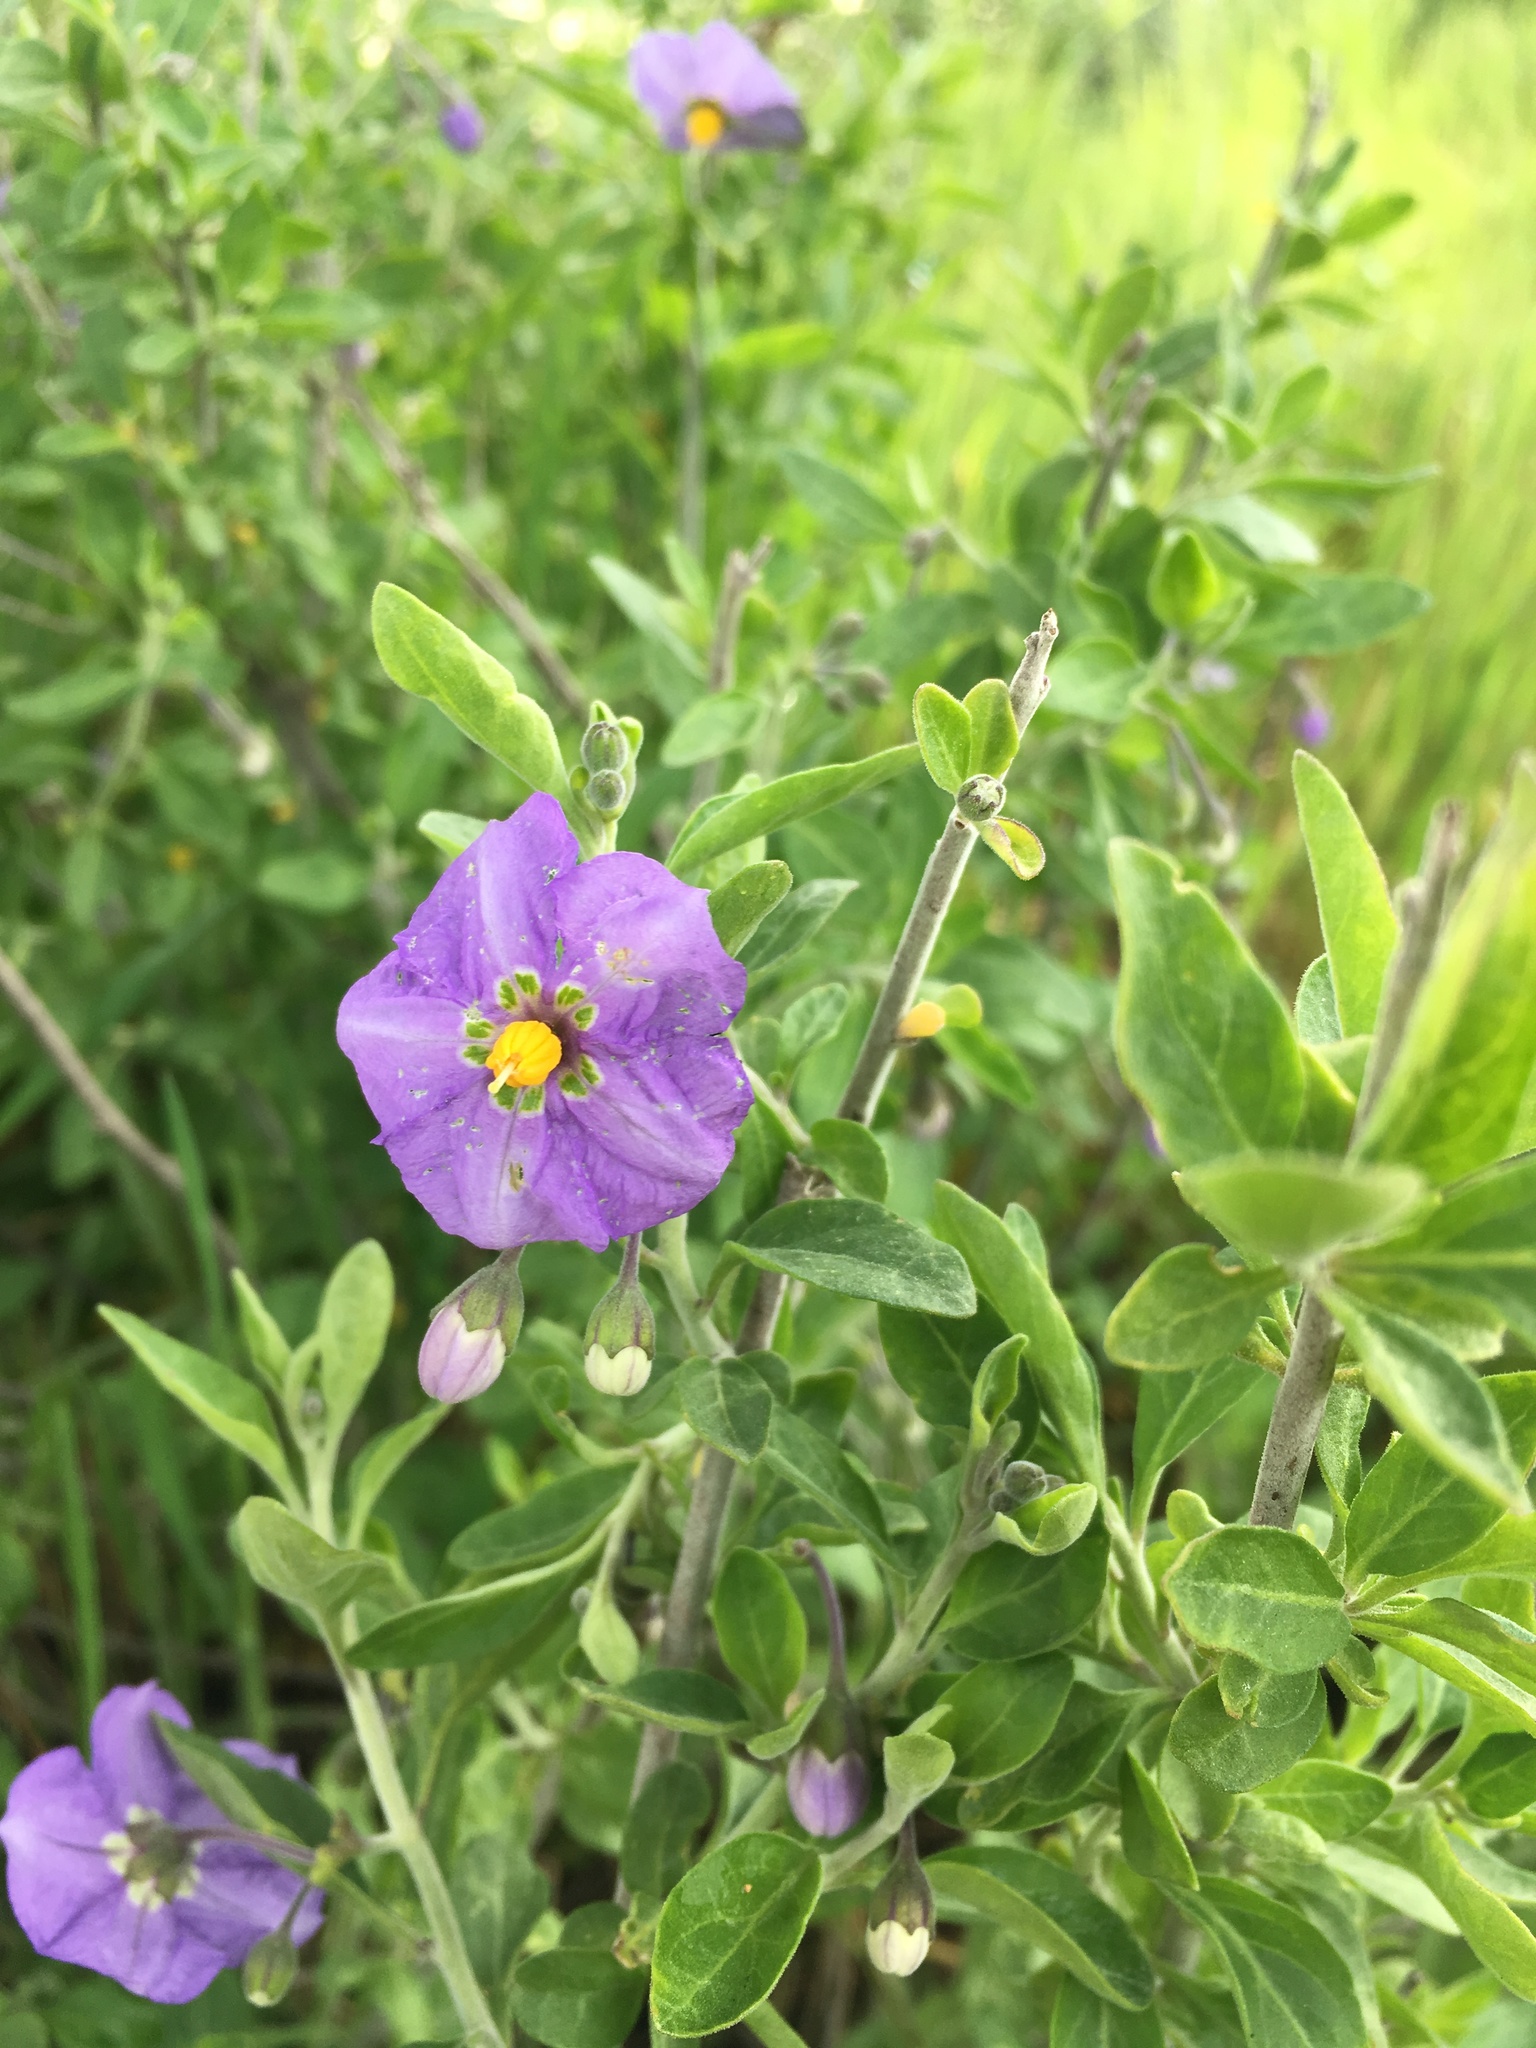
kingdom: Plantae
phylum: Tracheophyta
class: Magnoliopsida
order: Solanales
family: Solanaceae
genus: Solanum
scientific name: Solanum umbelliferum
